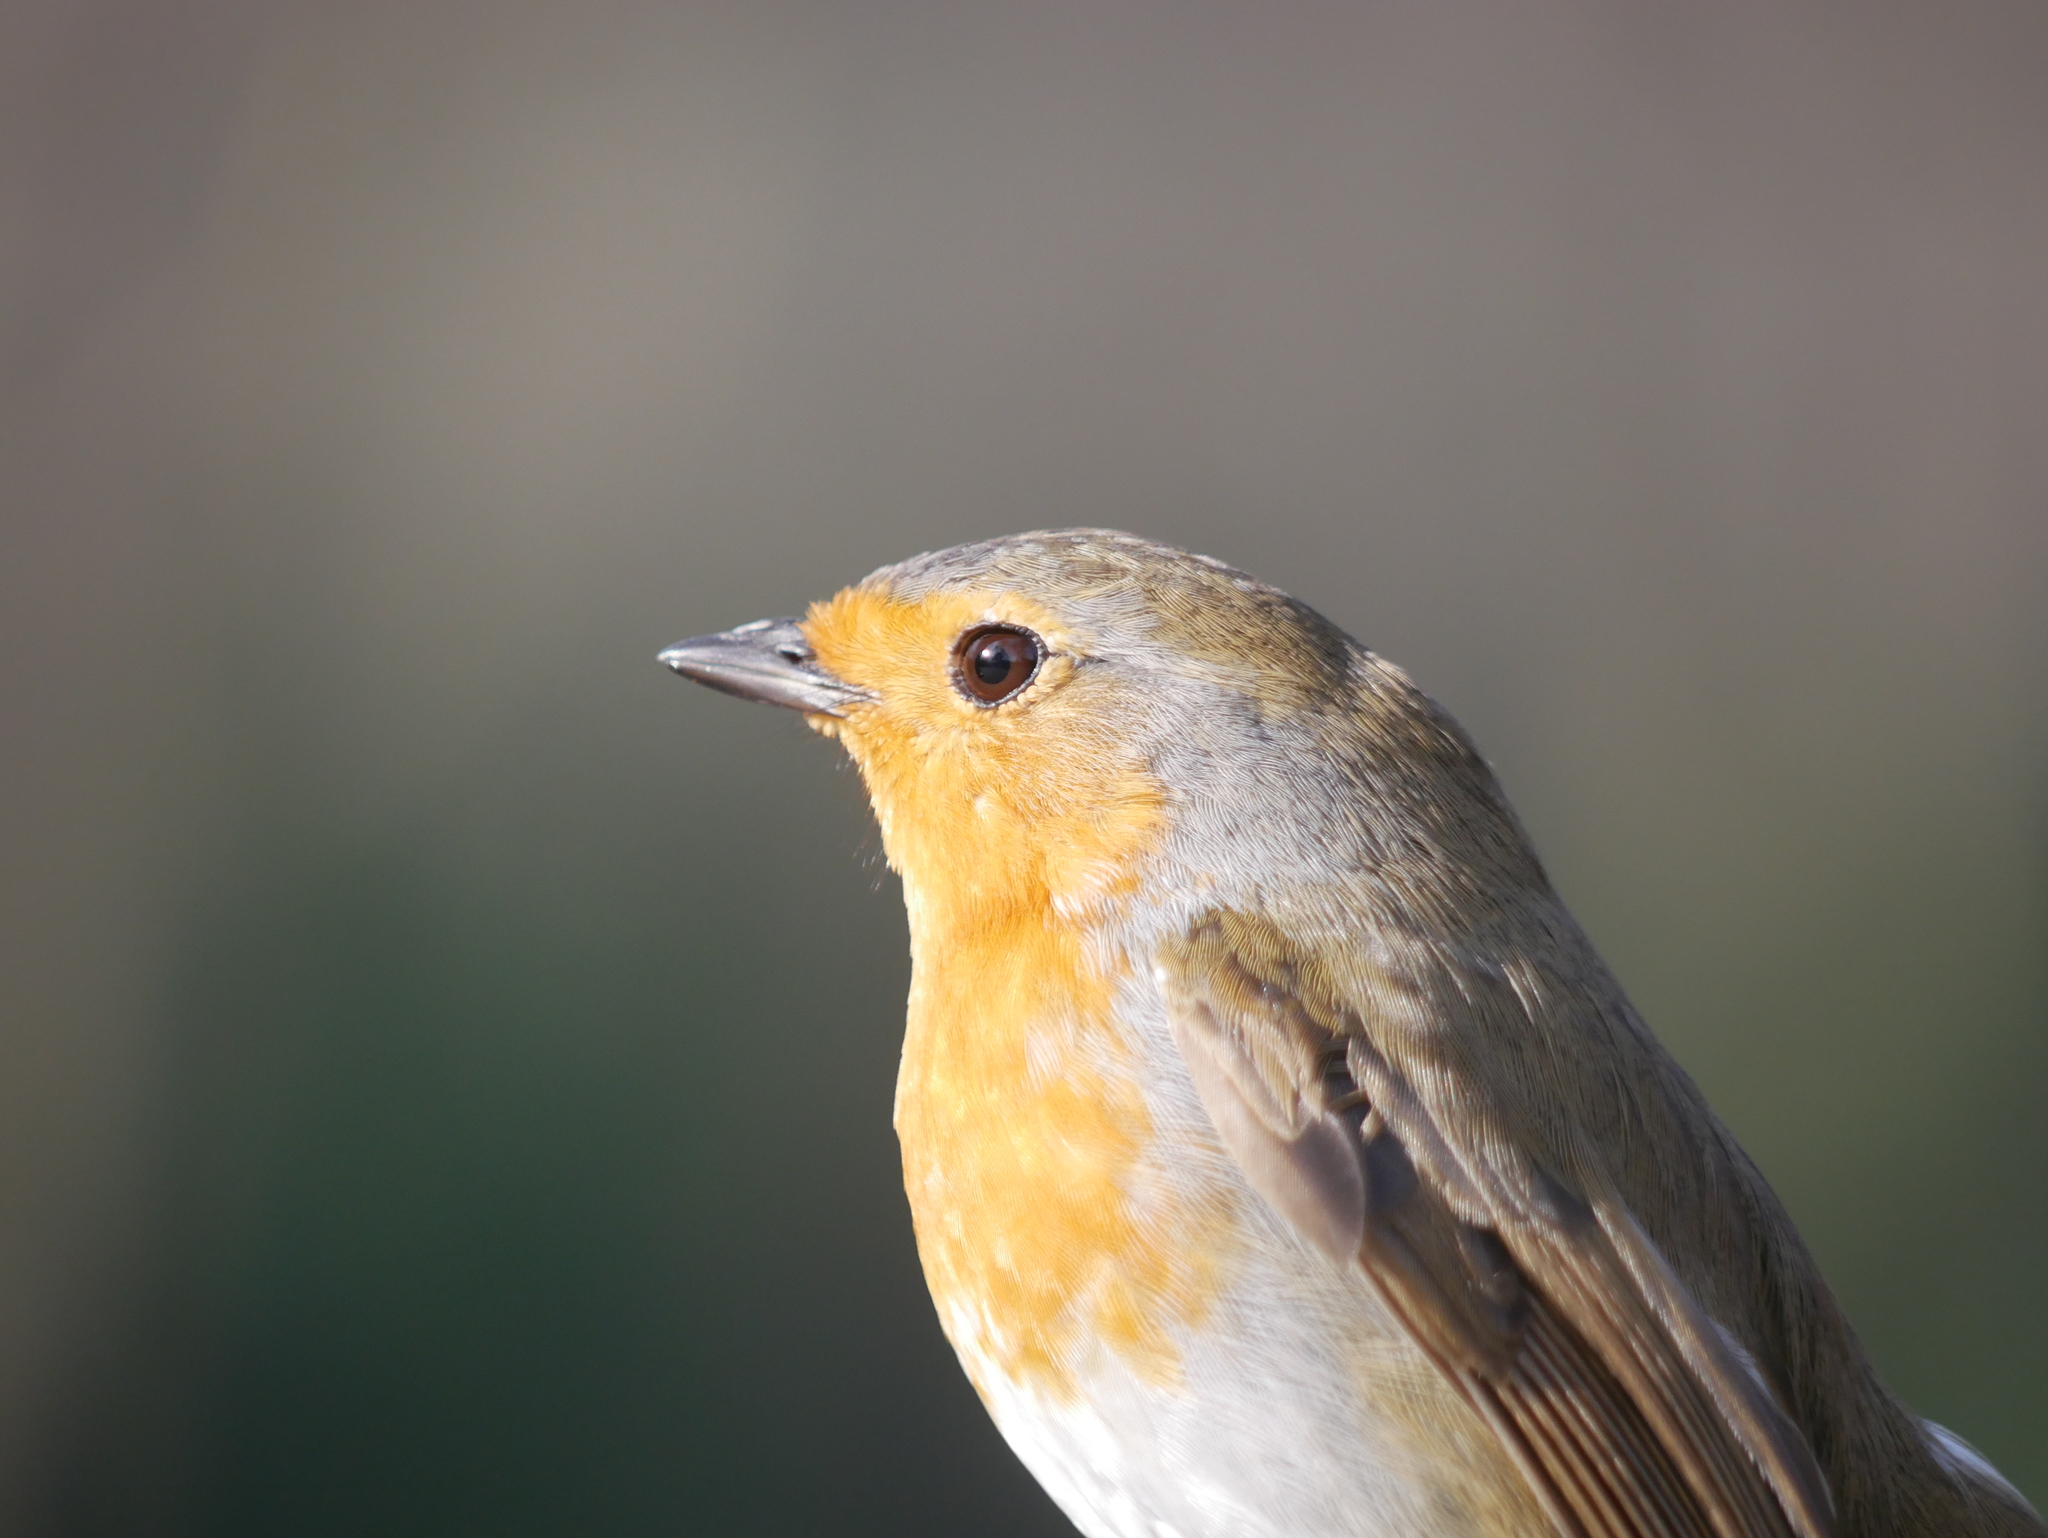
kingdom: Animalia
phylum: Chordata
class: Aves
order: Passeriformes
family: Muscicapidae
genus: Erithacus
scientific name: Erithacus rubecula
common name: European robin
